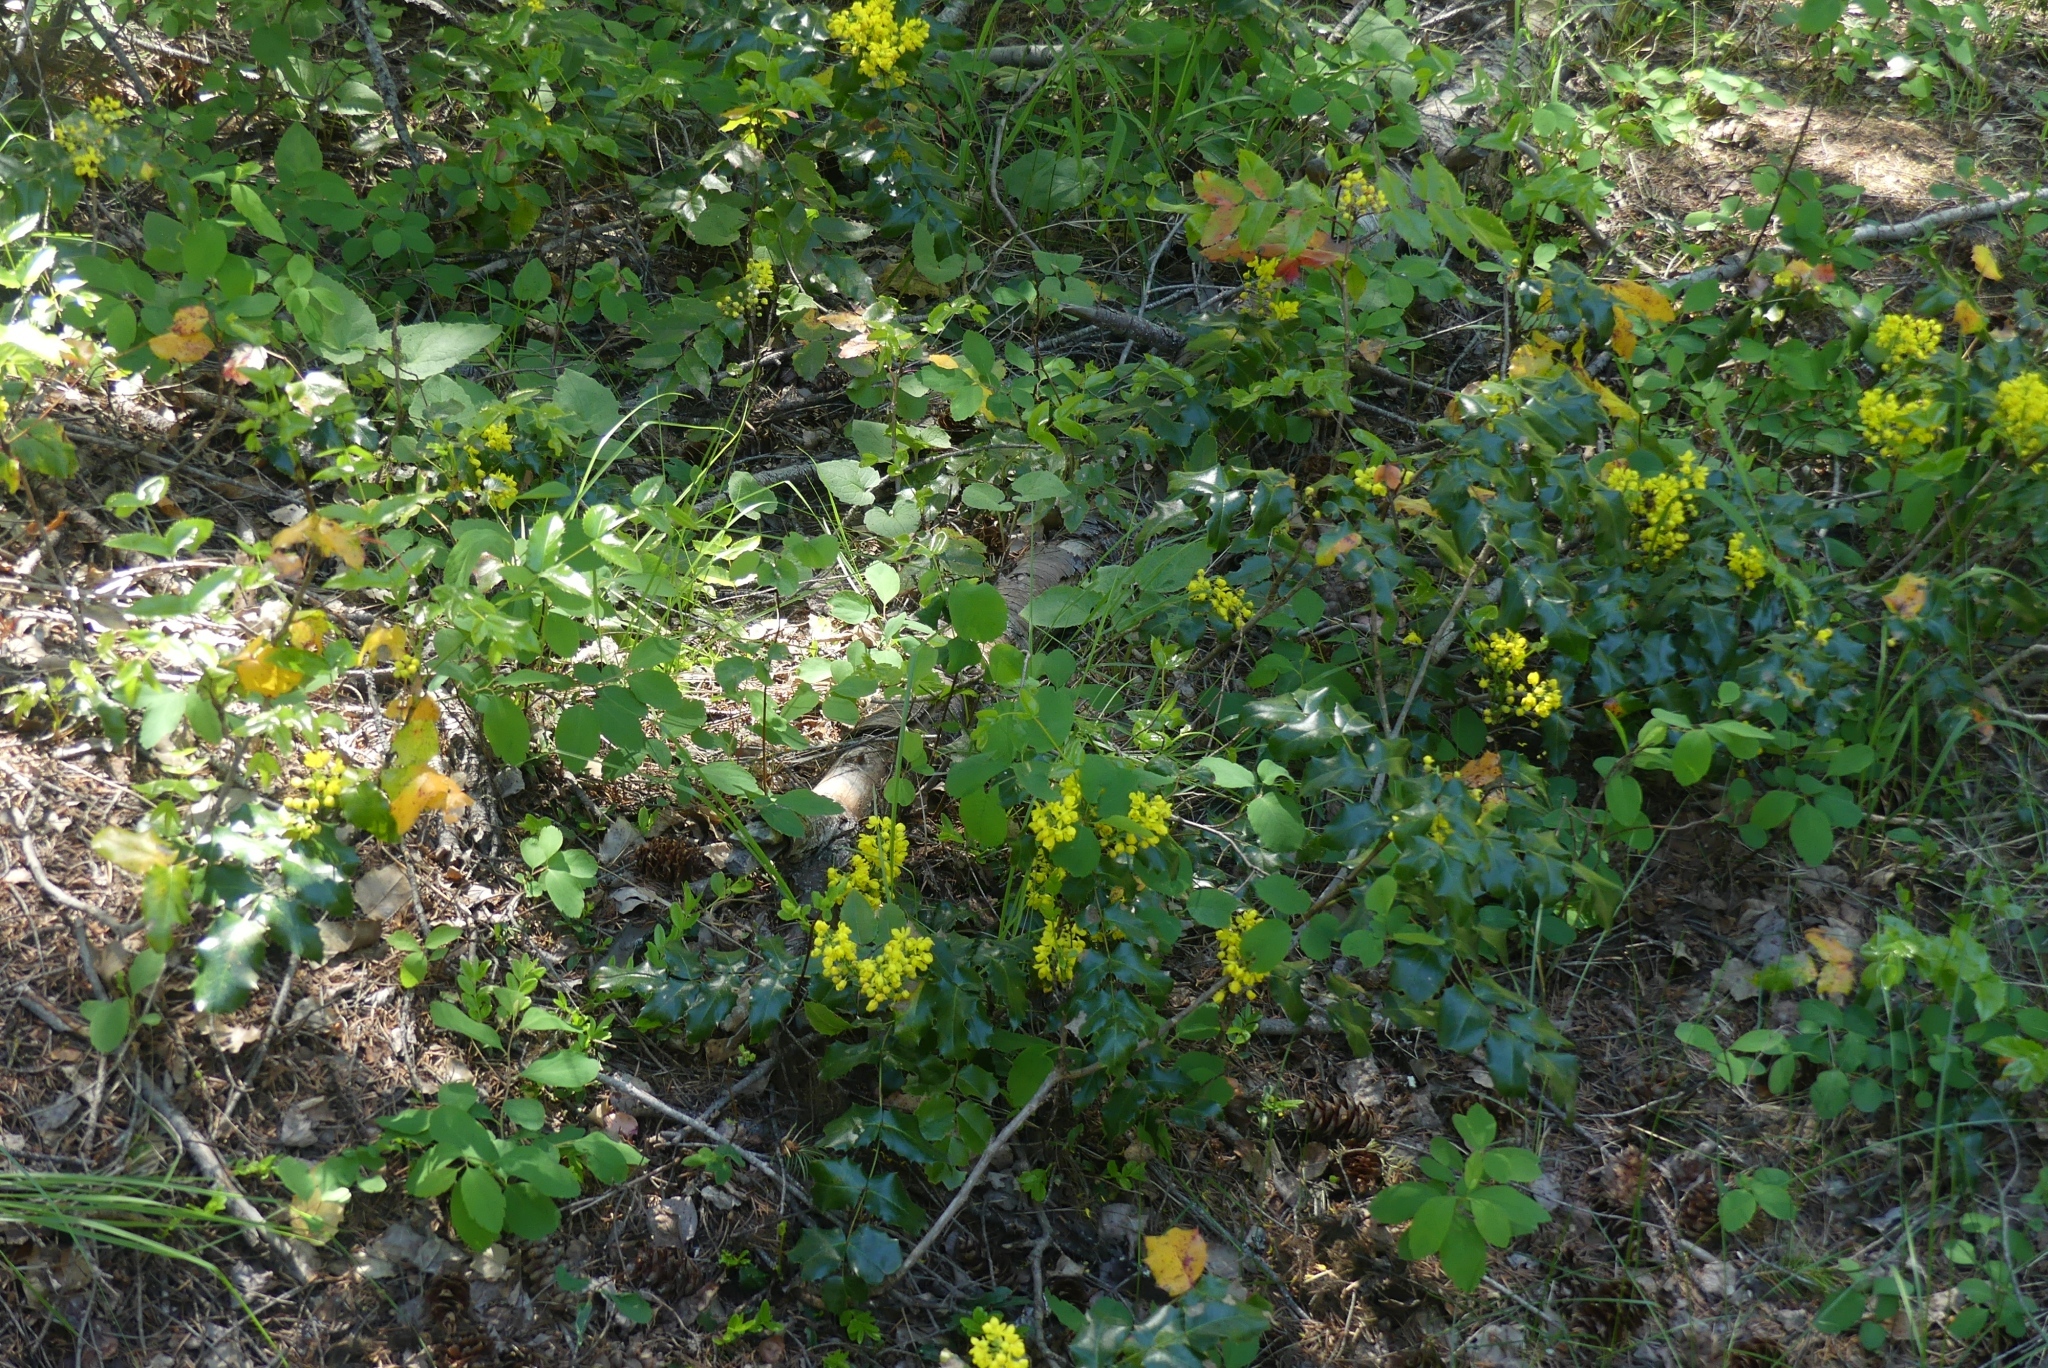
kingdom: Plantae
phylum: Tracheophyta
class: Magnoliopsida
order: Ranunculales
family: Berberidaceae
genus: Mahonia
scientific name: Mahonia aquifolium
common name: Oregon-grape
